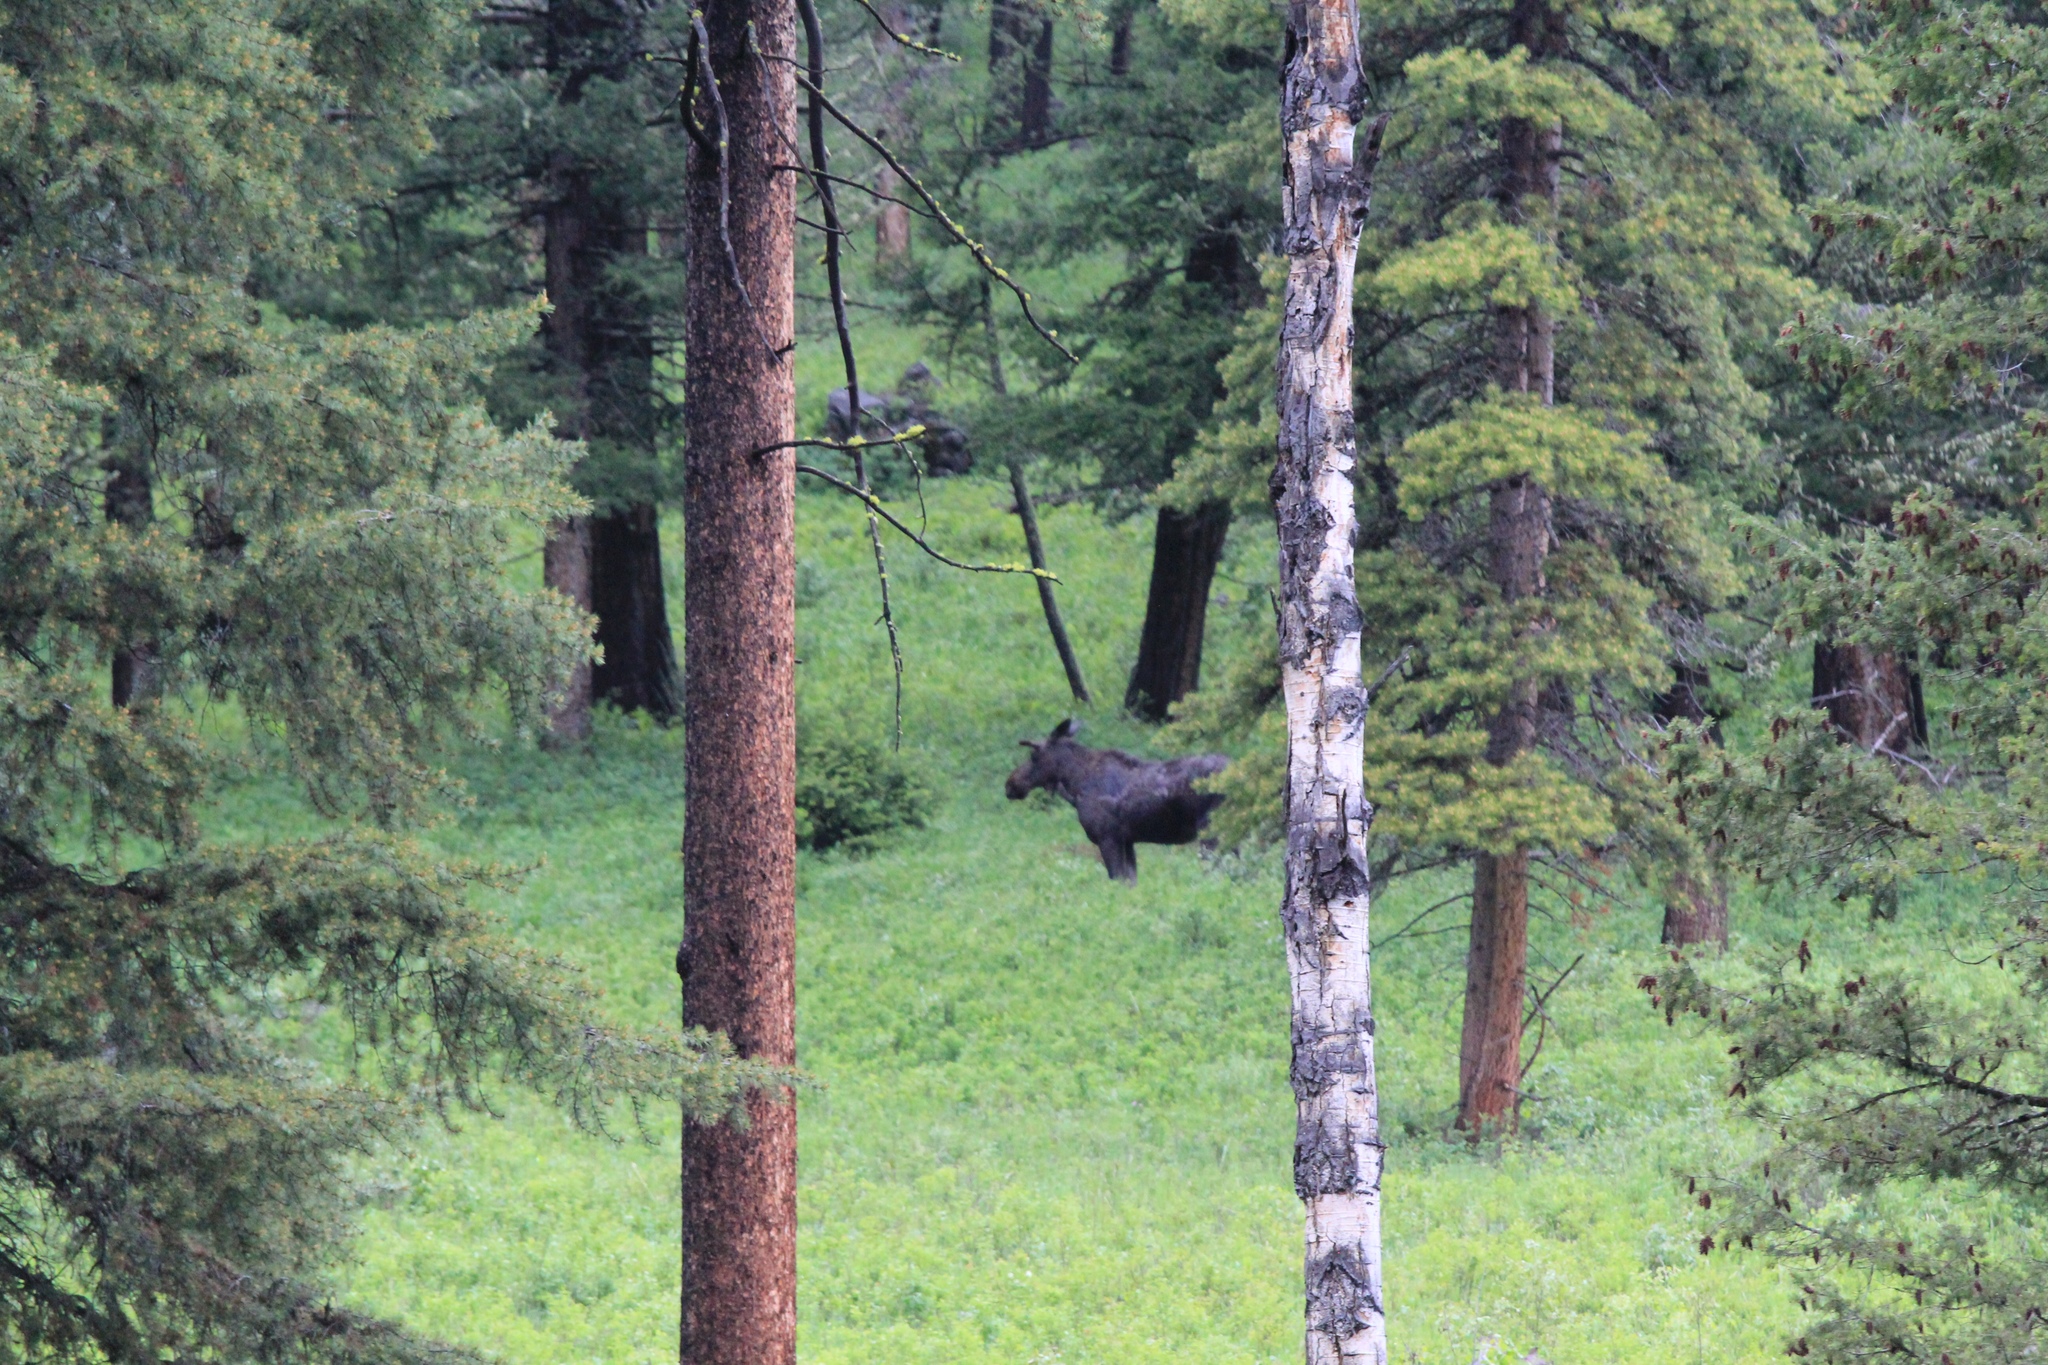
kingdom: Animalia
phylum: Chordata
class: Mammalia
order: Artiodactyla
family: Cervidae
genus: Alces
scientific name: Alces alces
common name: Moose
